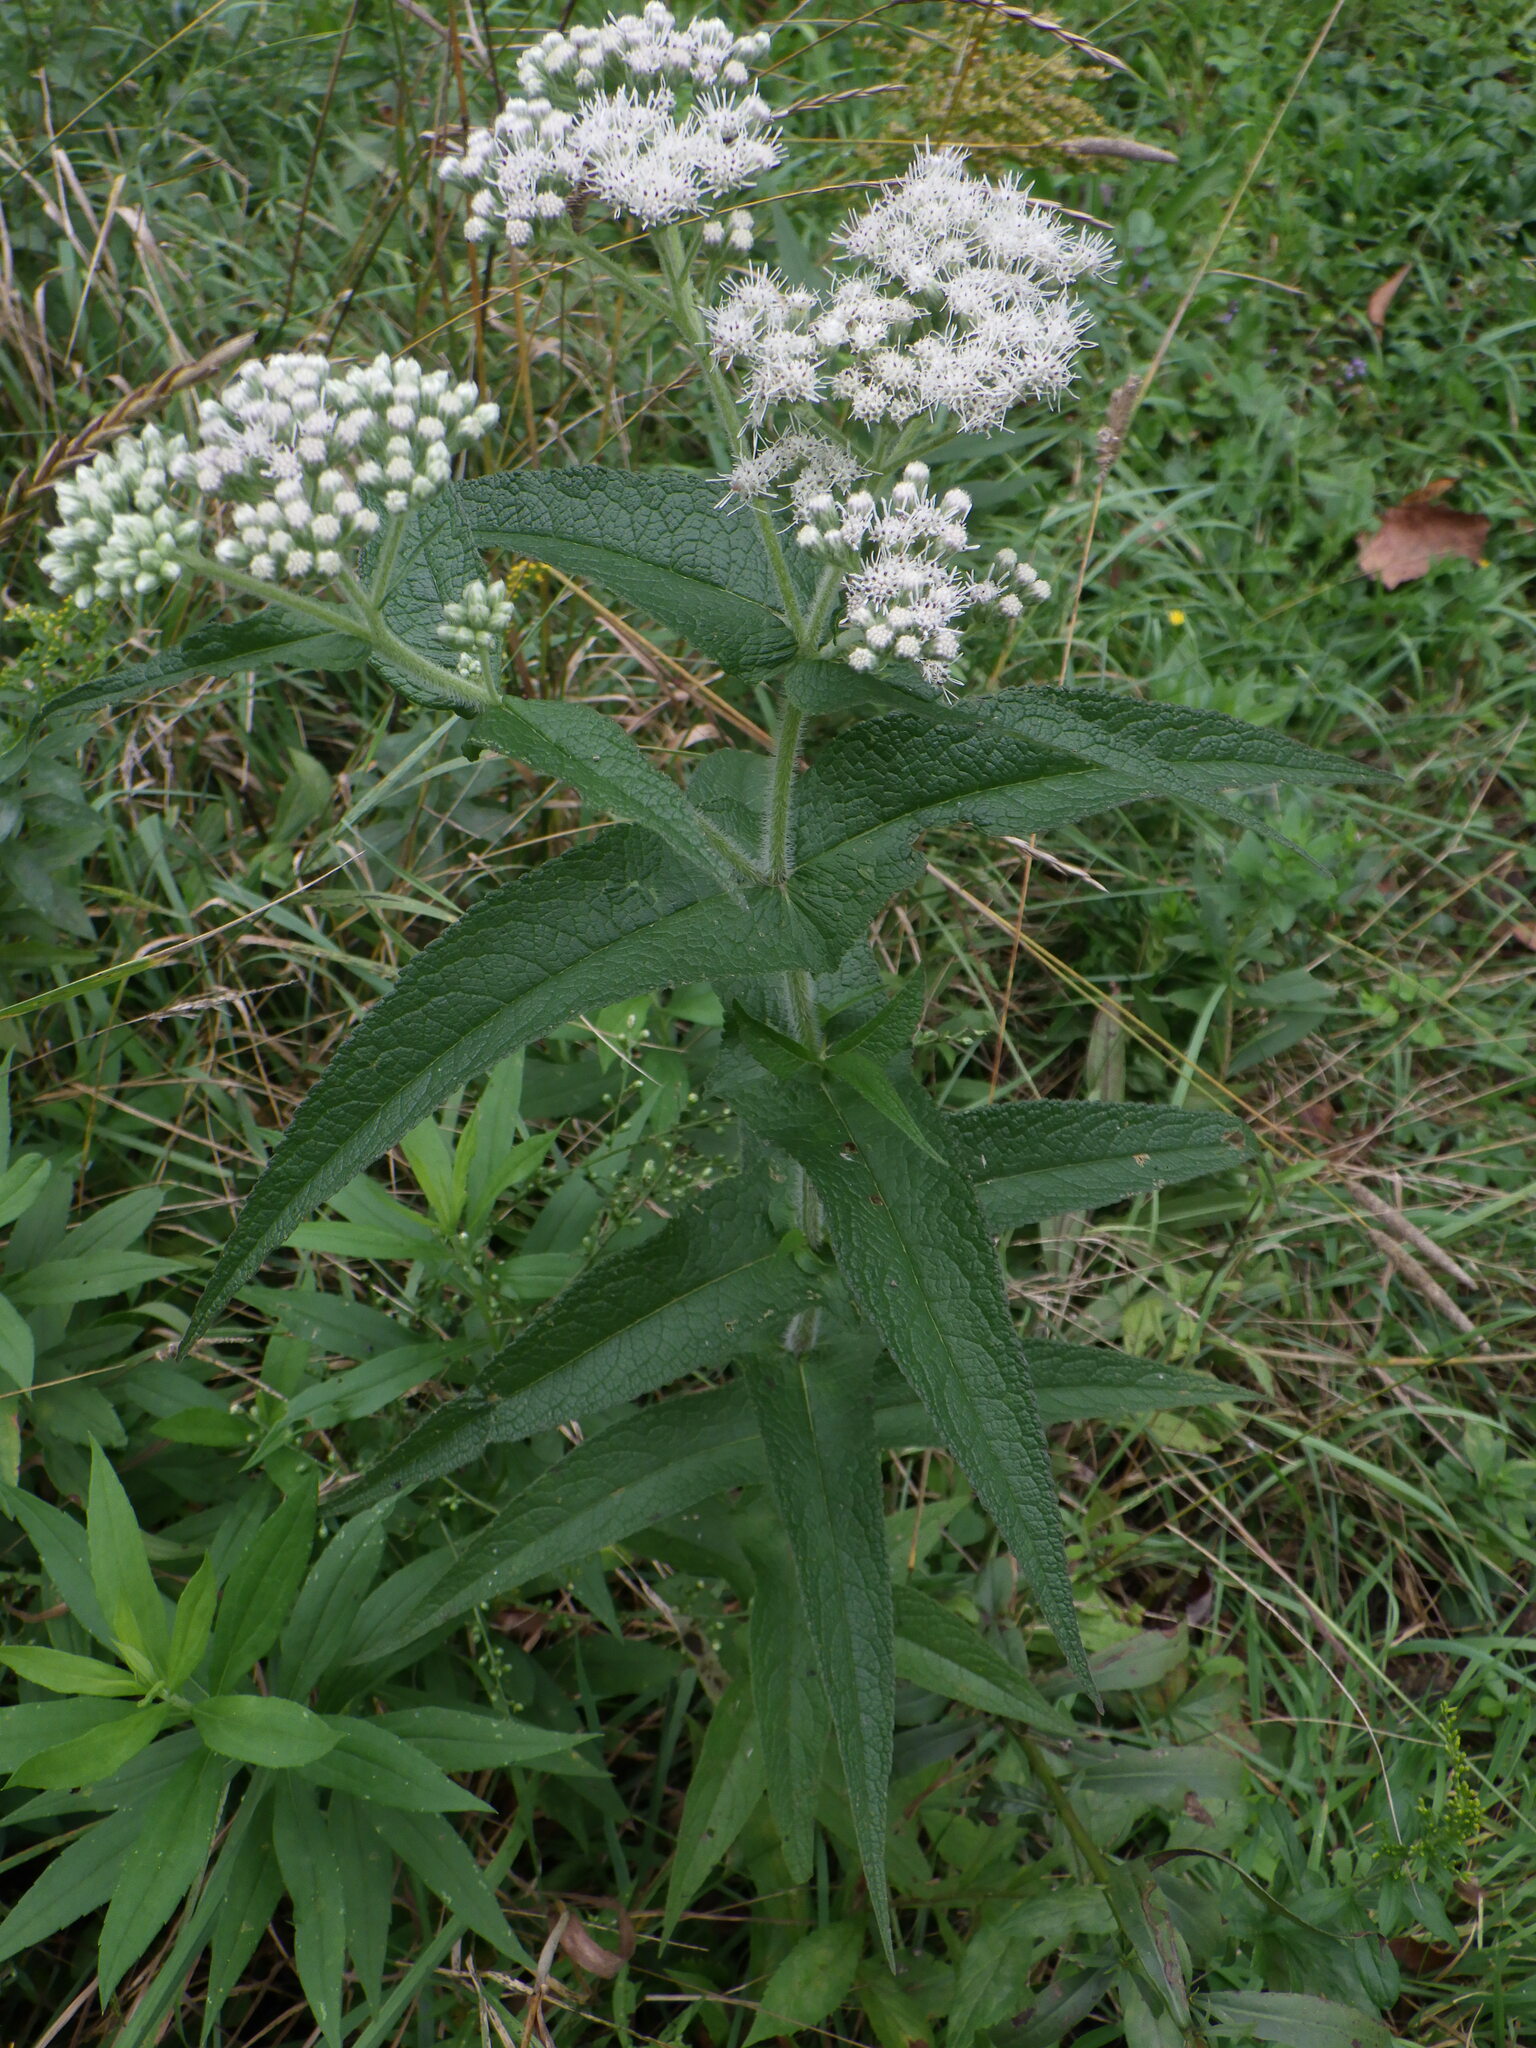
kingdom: Plantae
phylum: Tracheophyta
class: Magnoliopsida
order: Asterales
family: Asteraceae
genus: Eupatorium
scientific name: Eupatorium perfoliatum
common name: Boneset
